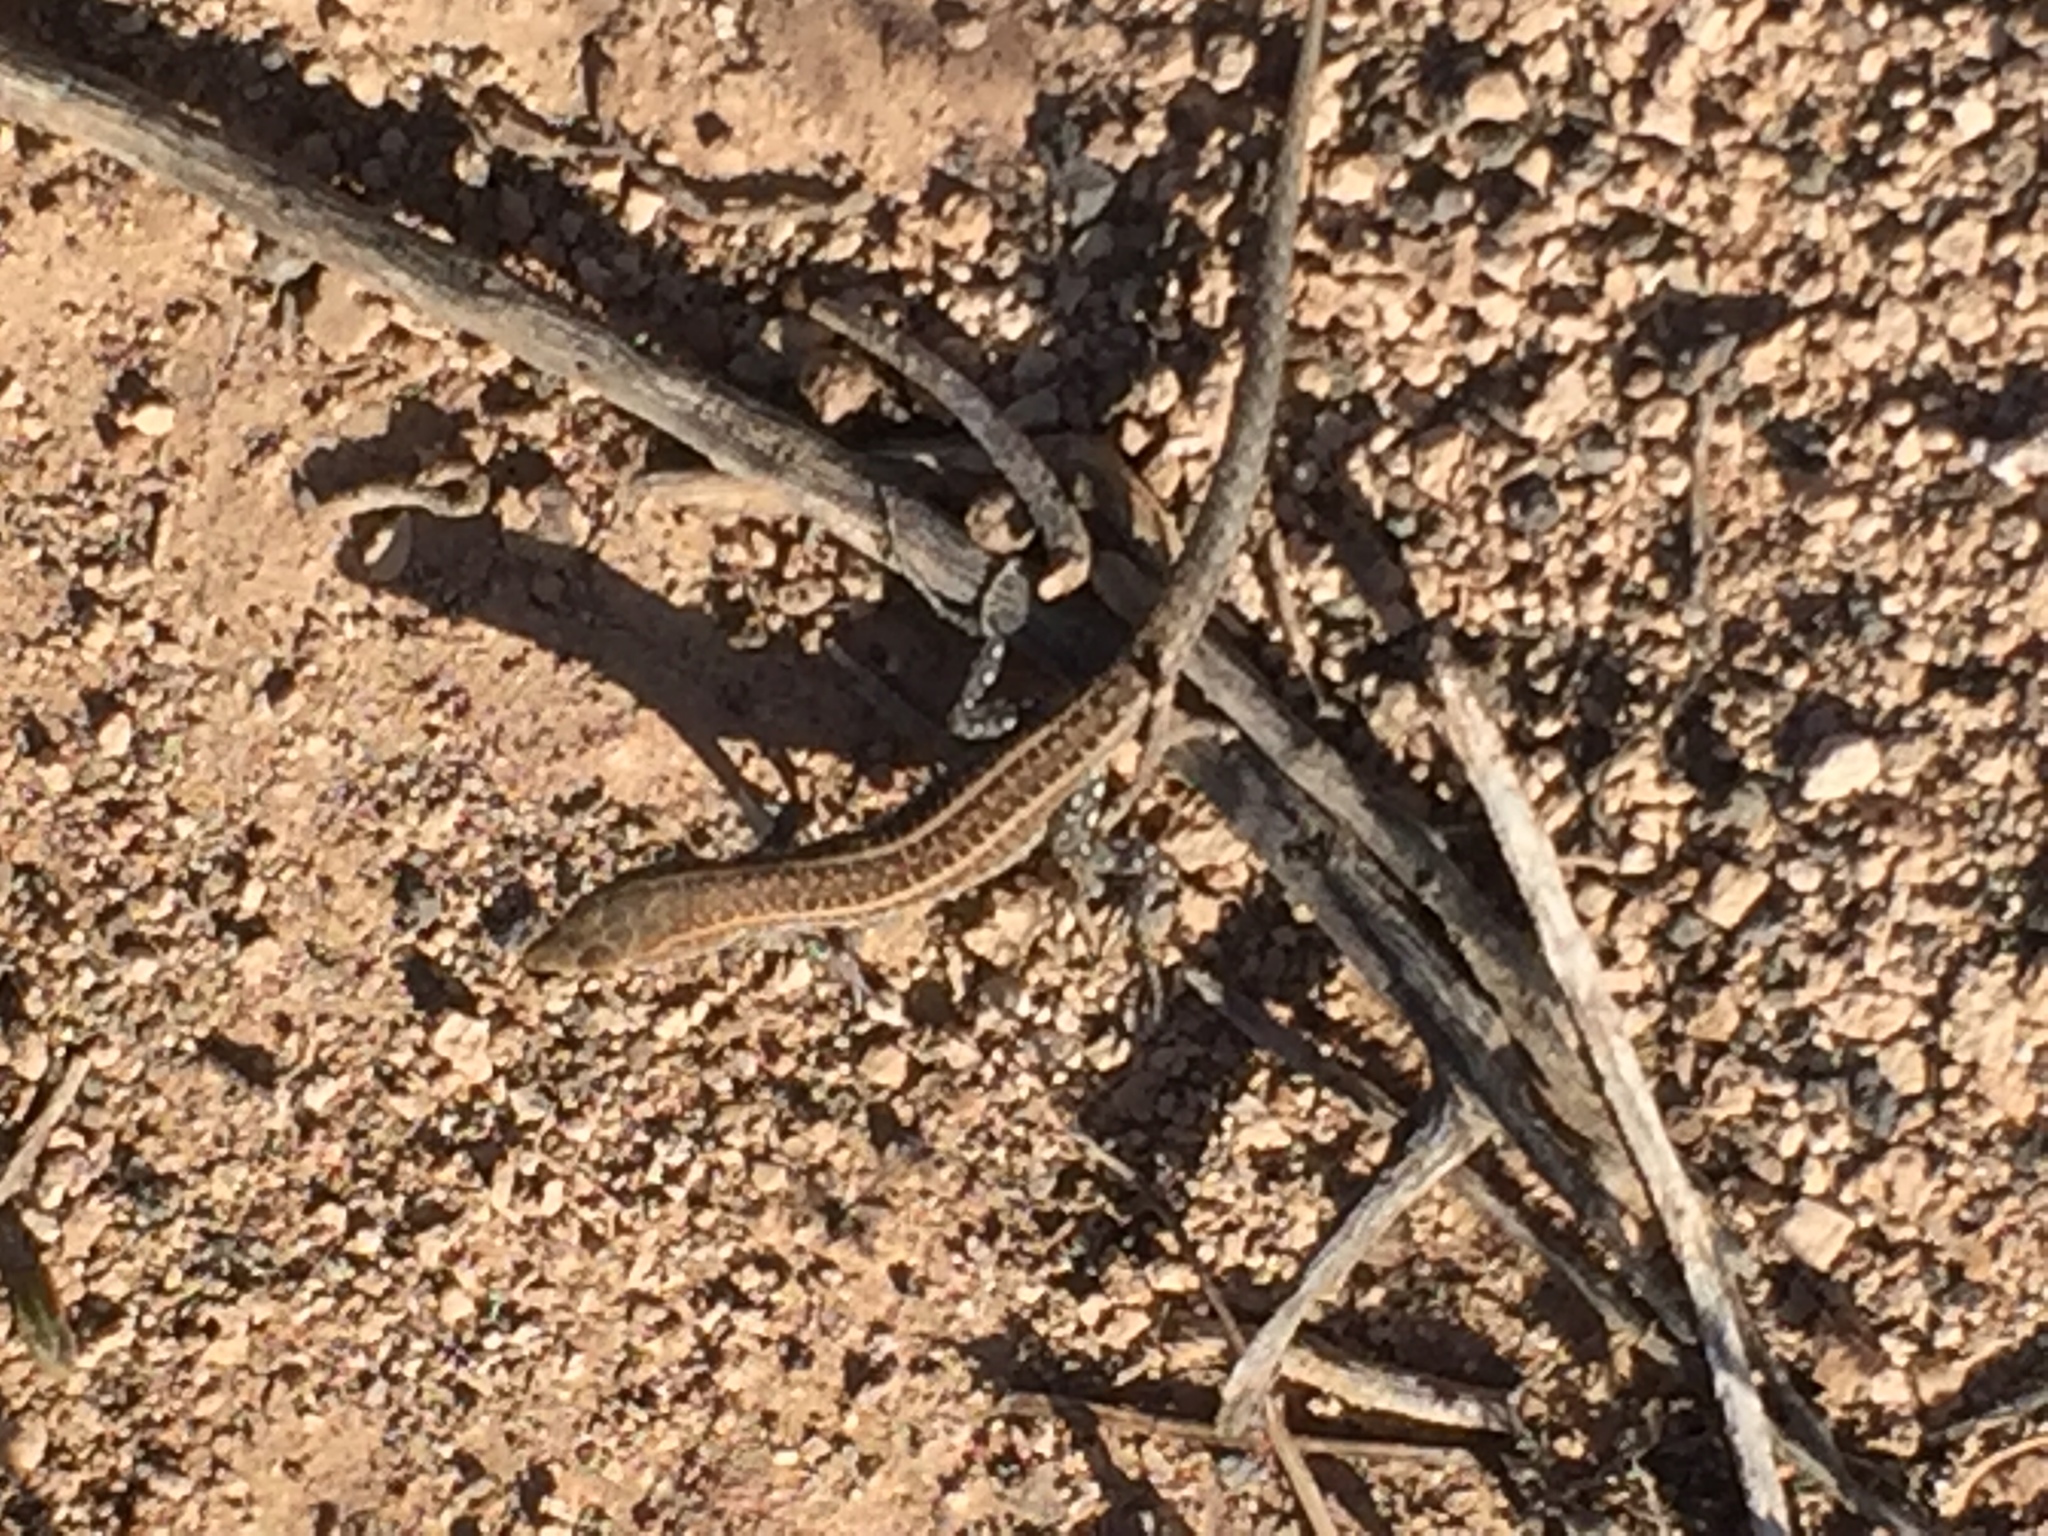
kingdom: Animalia
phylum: Chordata
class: Squamata
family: Lacertidae
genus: Gallotia
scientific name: Gallotia atlantica
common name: Atlantic lizard
